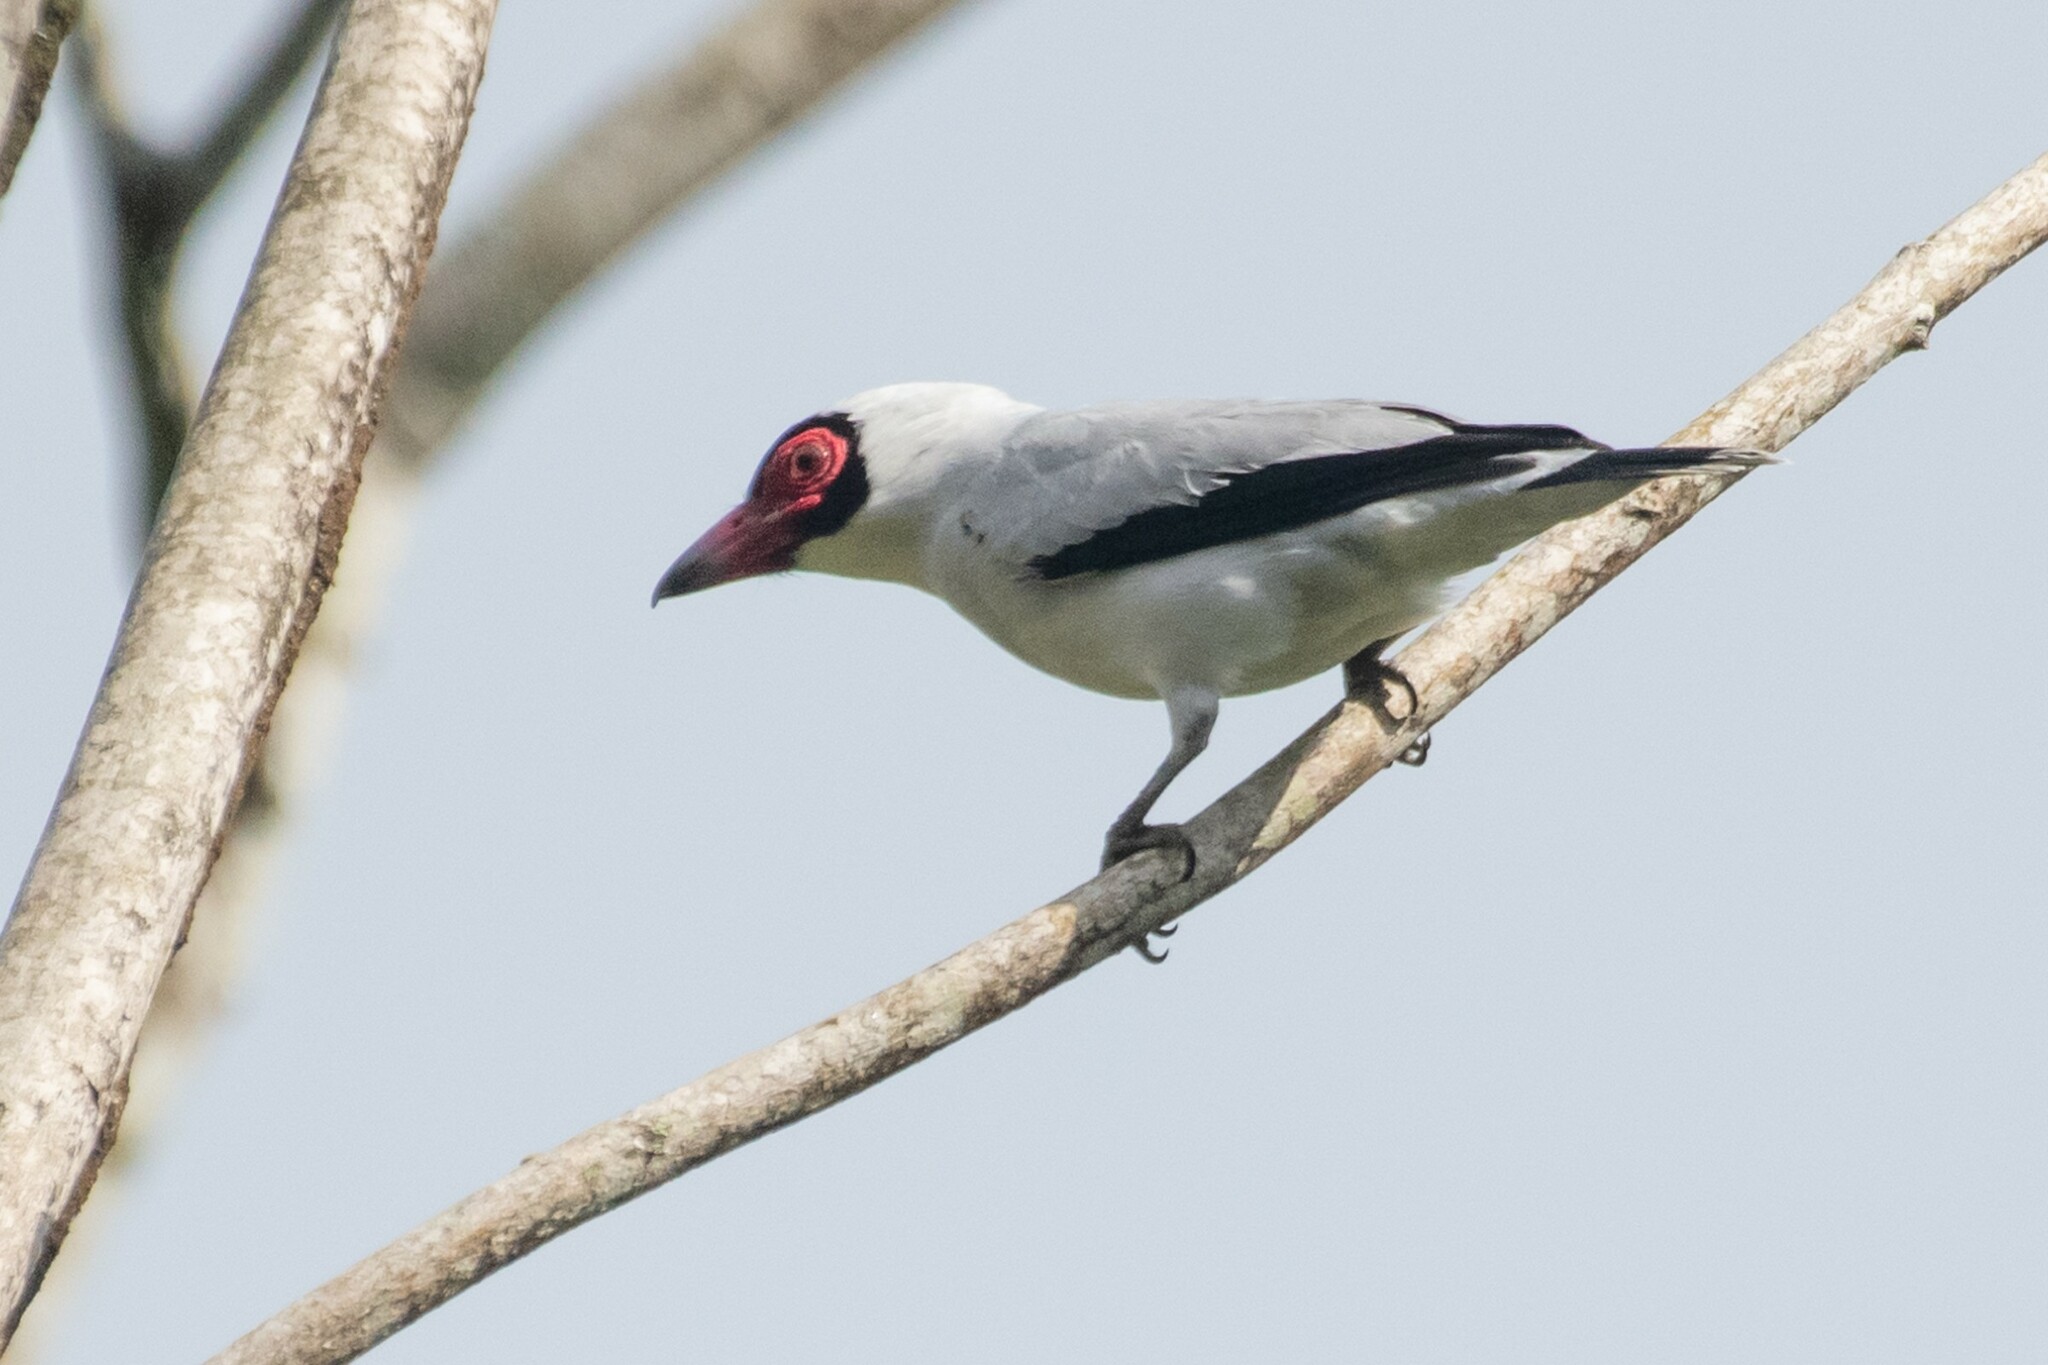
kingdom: Animalia
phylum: Chordata
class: Aves
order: Passeriformes
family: Cotingidae
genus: Tityra
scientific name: Tityra semifasciata
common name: Masked tityra
